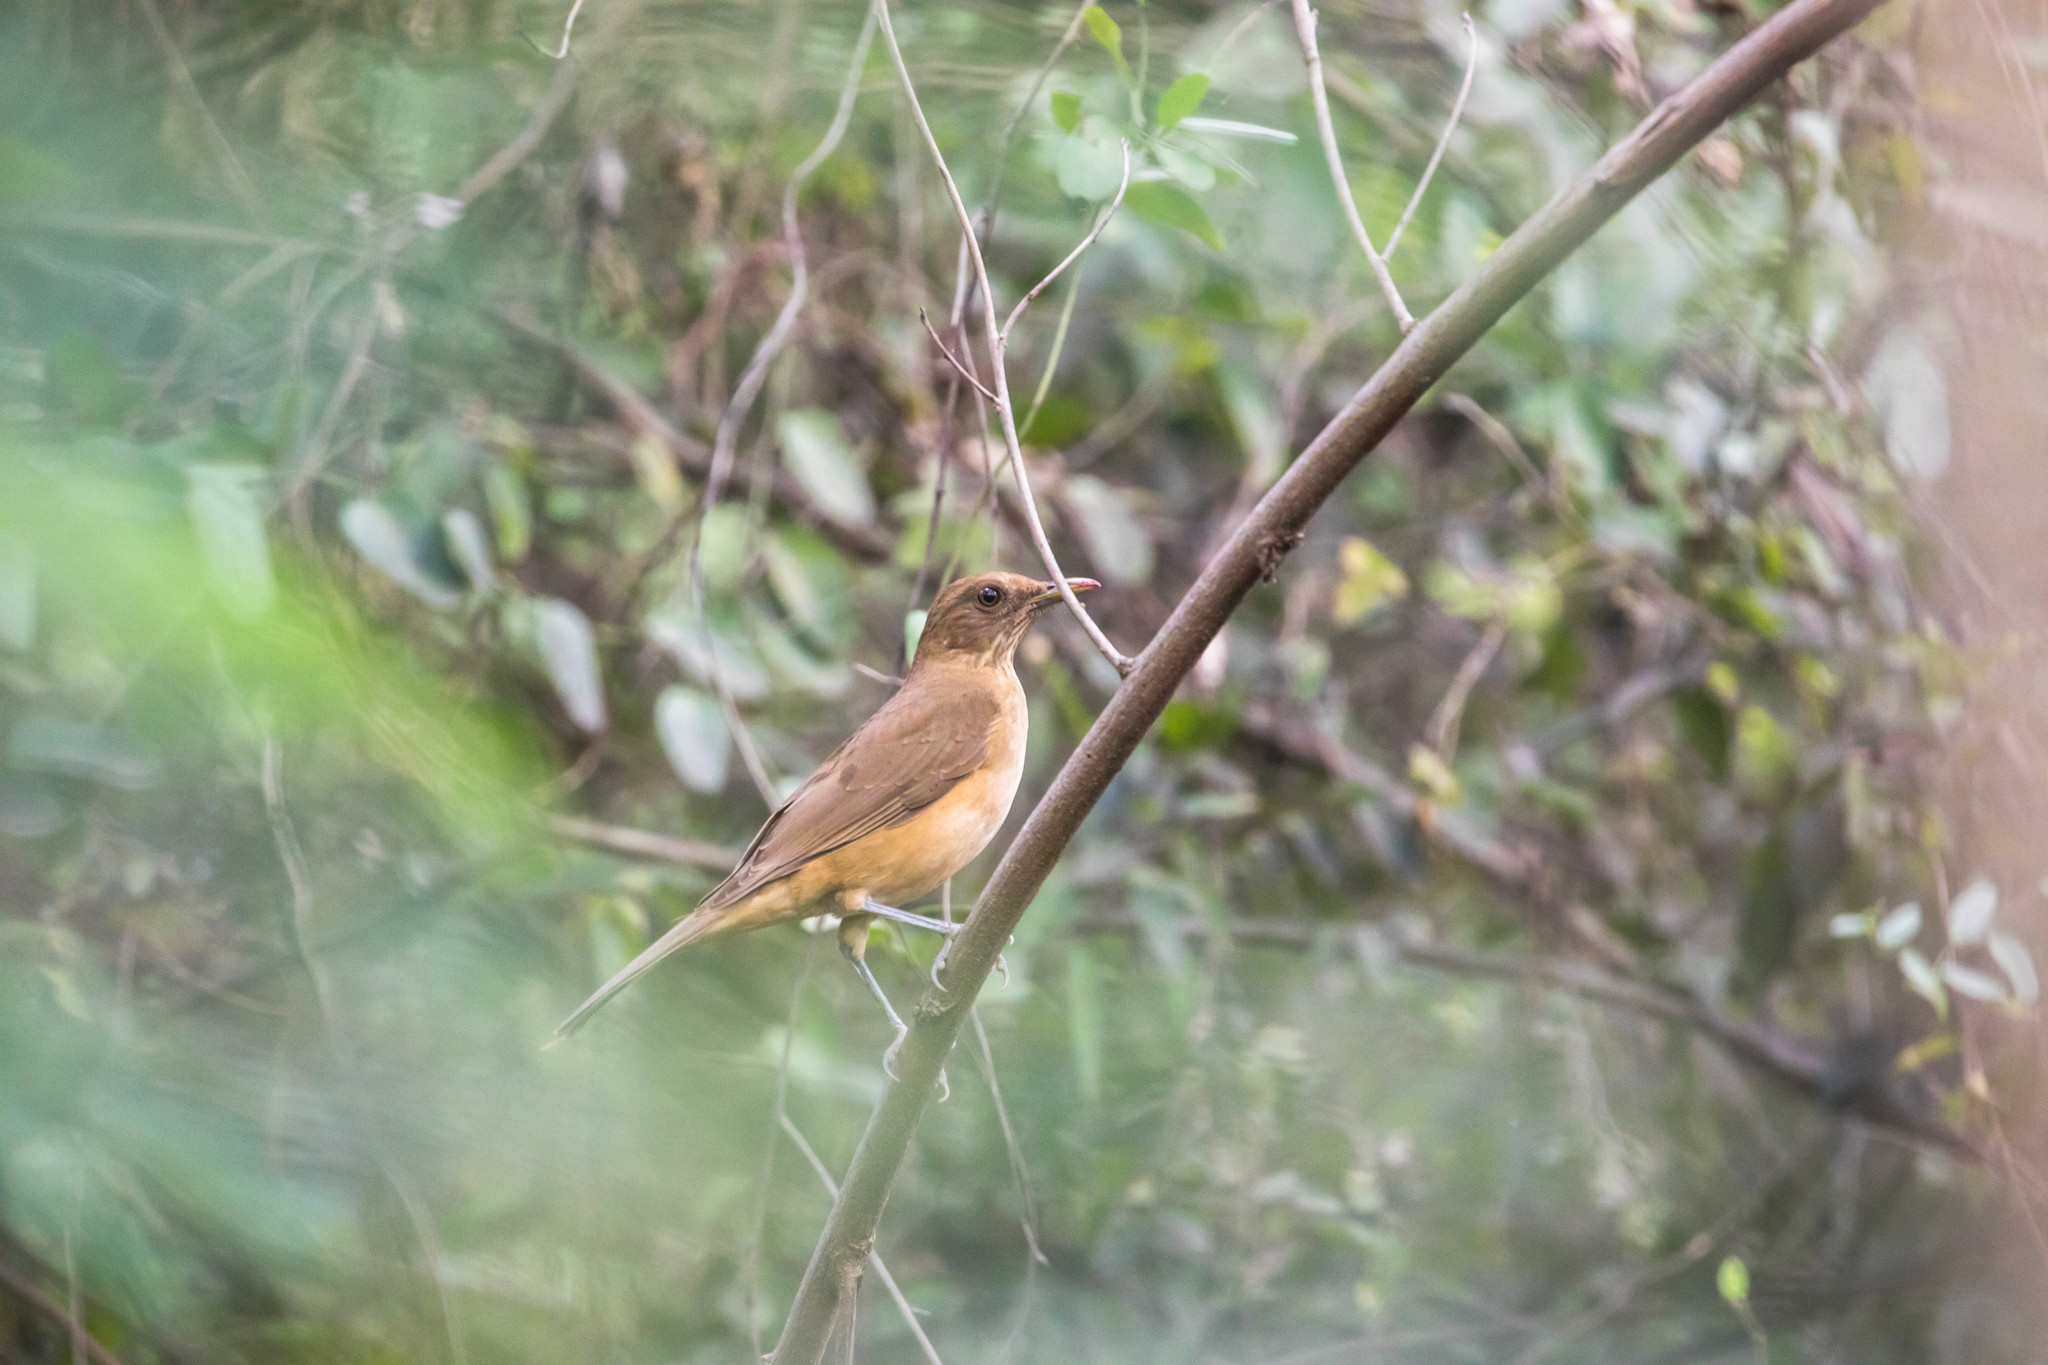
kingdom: Animalia
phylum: Chordata
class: Aves
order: Passeriformes
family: Turdidae
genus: Turdus
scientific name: Turdus grayi
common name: Clay-colored thrush
